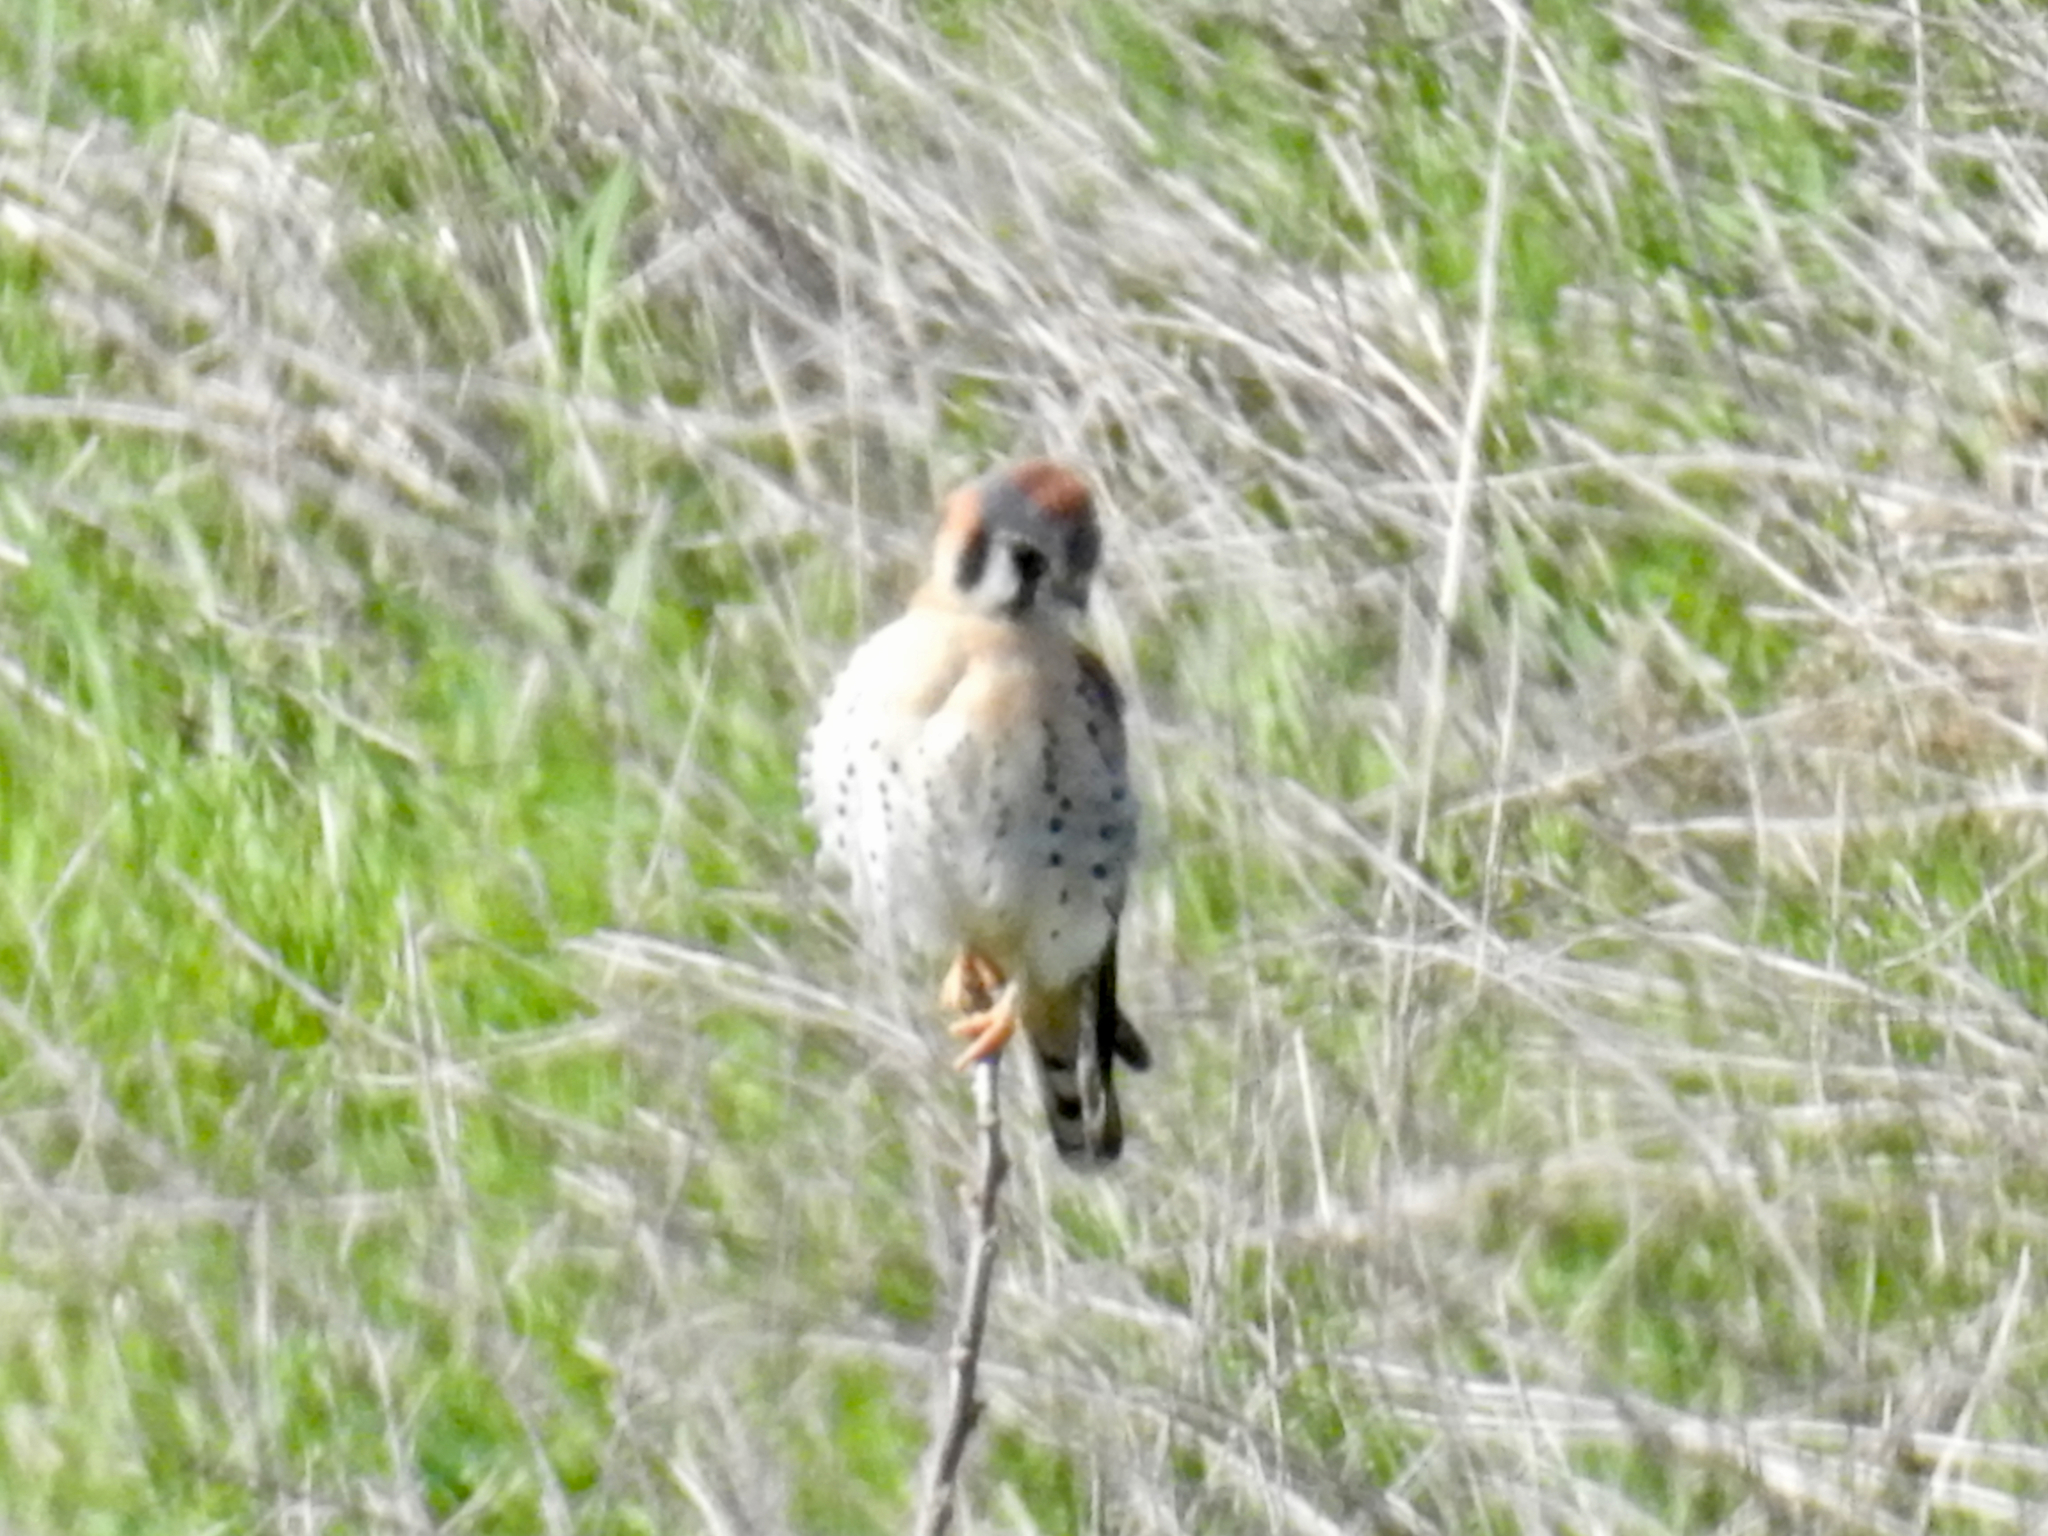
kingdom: Animalia
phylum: Chordata
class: Aves
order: Falconiformes
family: Falconidae
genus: Falco
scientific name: Falco sparverius
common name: American kestrel
